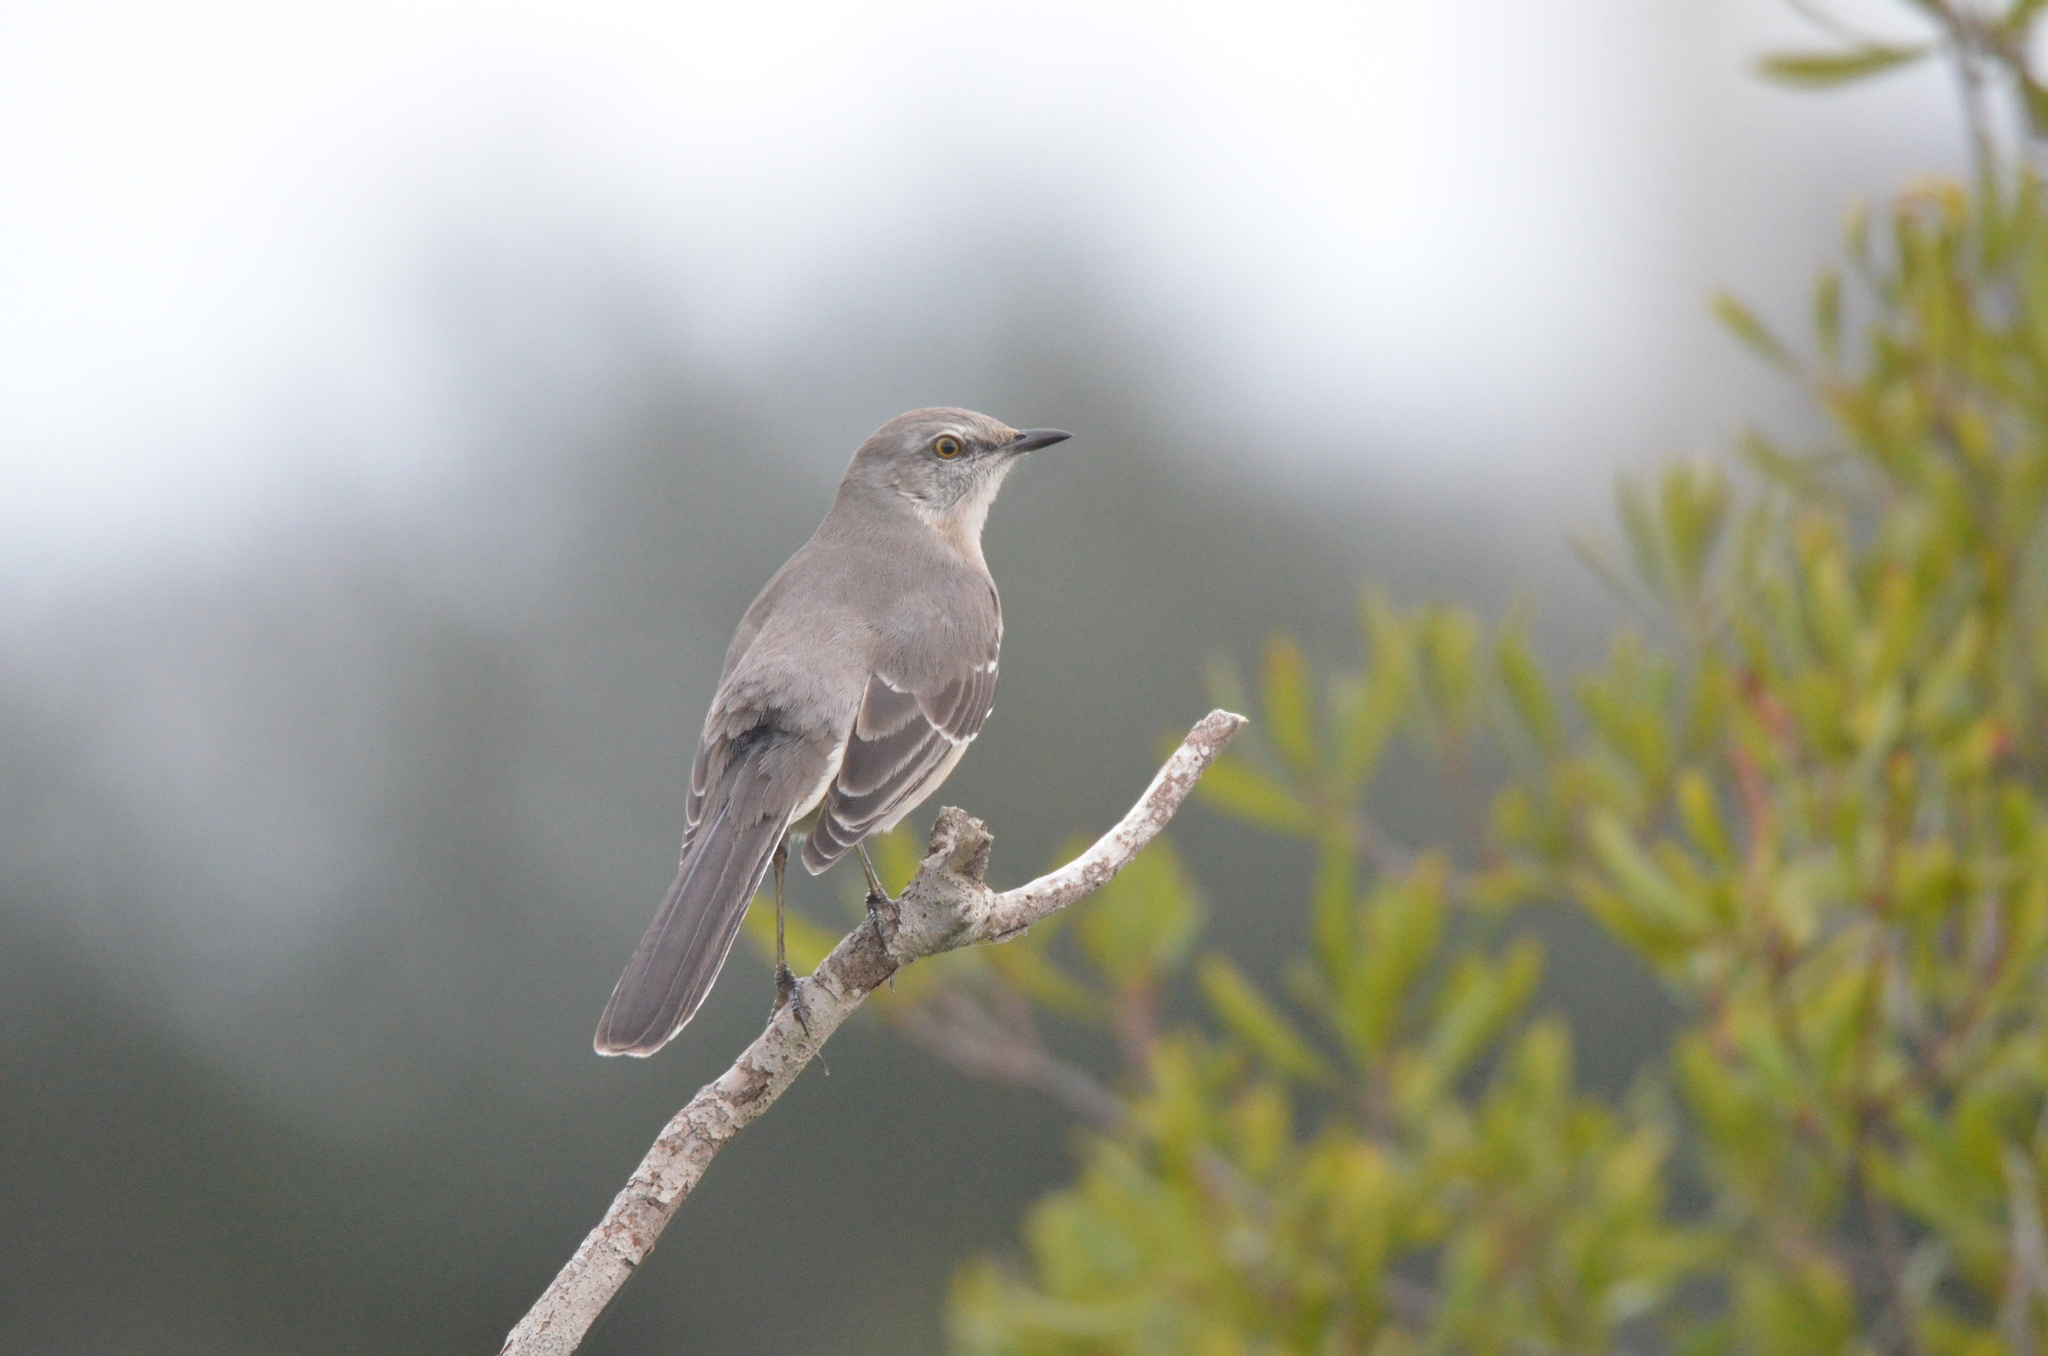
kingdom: Animalia
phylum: Chordata
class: Aves
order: Passeriformes
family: Mimidae
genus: Mimus
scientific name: Mimus polyglottos
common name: Northern mockingbird
